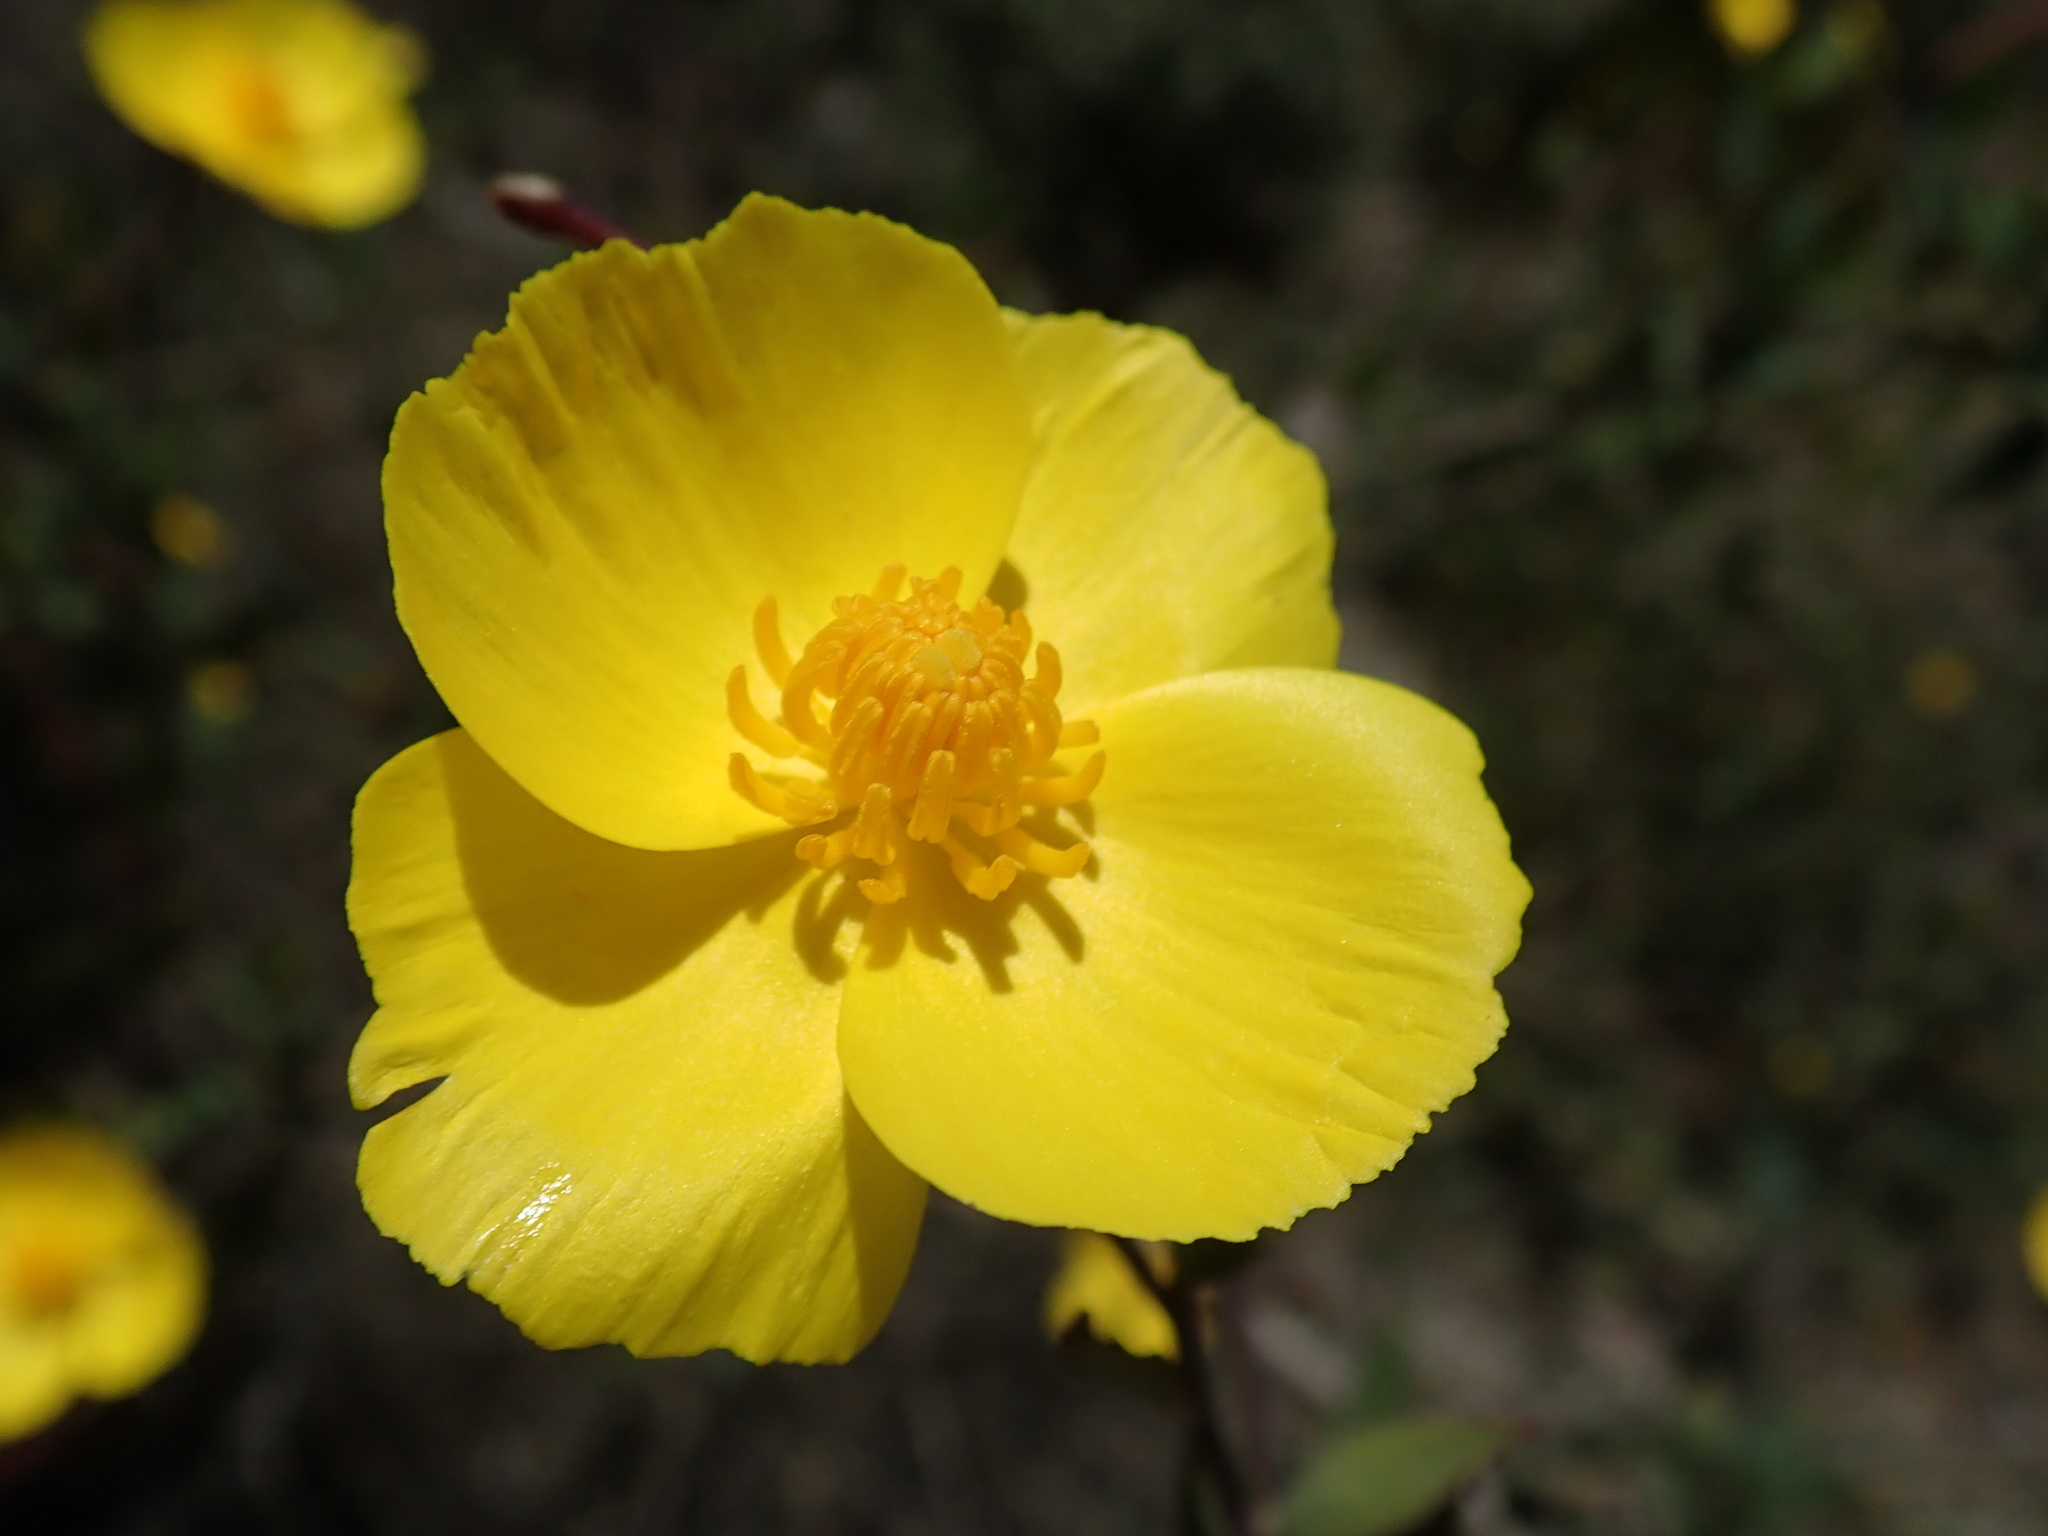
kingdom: Plantae
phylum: Tracheophyta
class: Magnoliopsida
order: Ranunculales
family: Papaveraceae
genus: Dendromecon
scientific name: Dendromecon rigida
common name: Tree poppy
